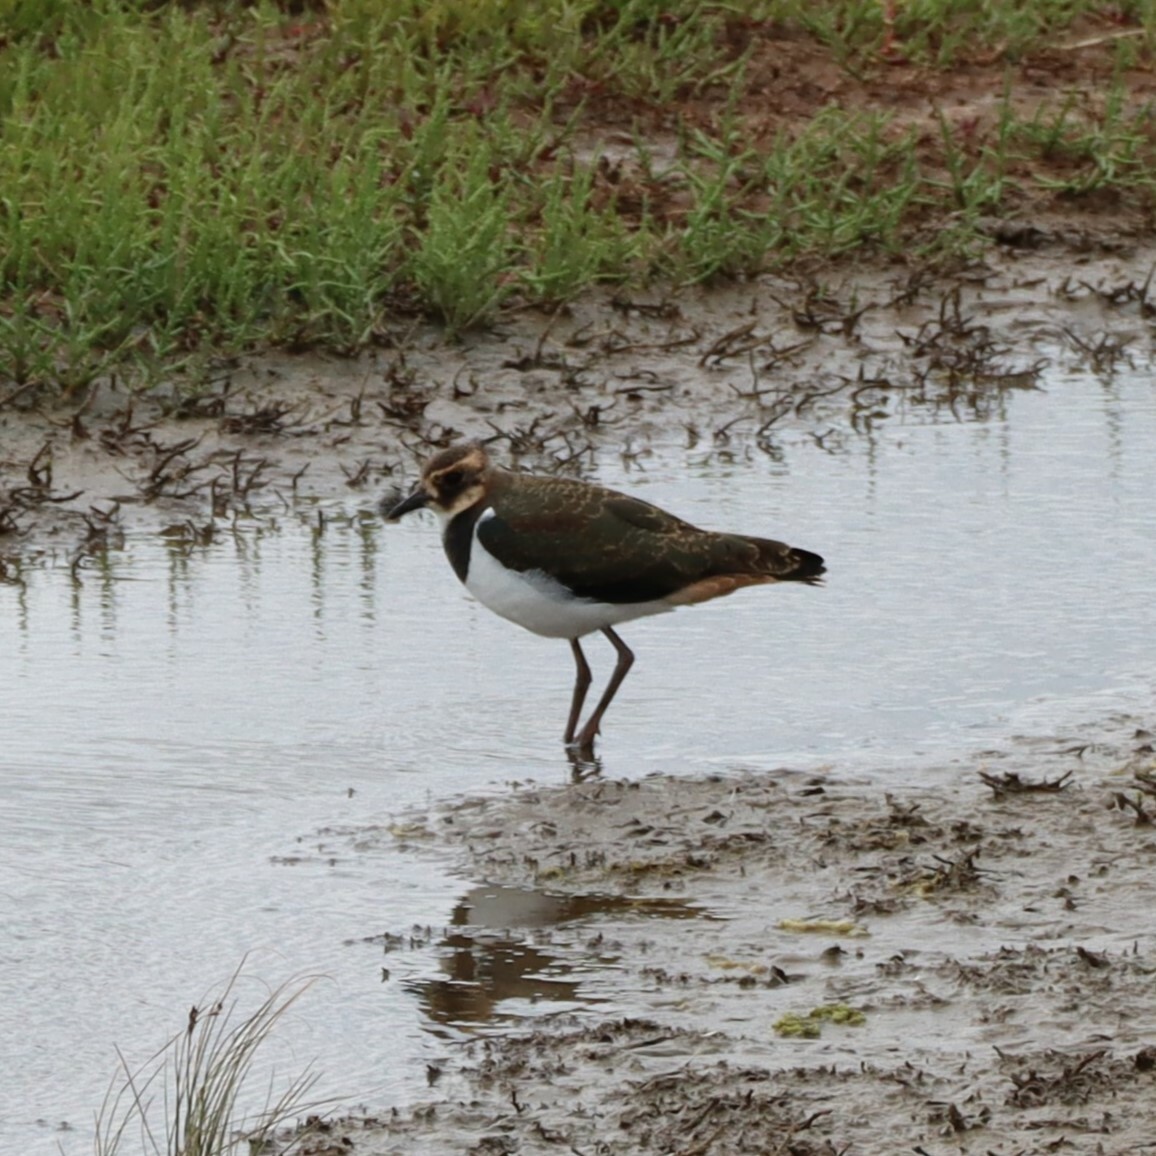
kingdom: Animalia
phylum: Chordata
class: Aves
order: Charadriiformes
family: Charadriidae
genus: Vanellus
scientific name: Vanellus vanellus
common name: Northern lapwing
